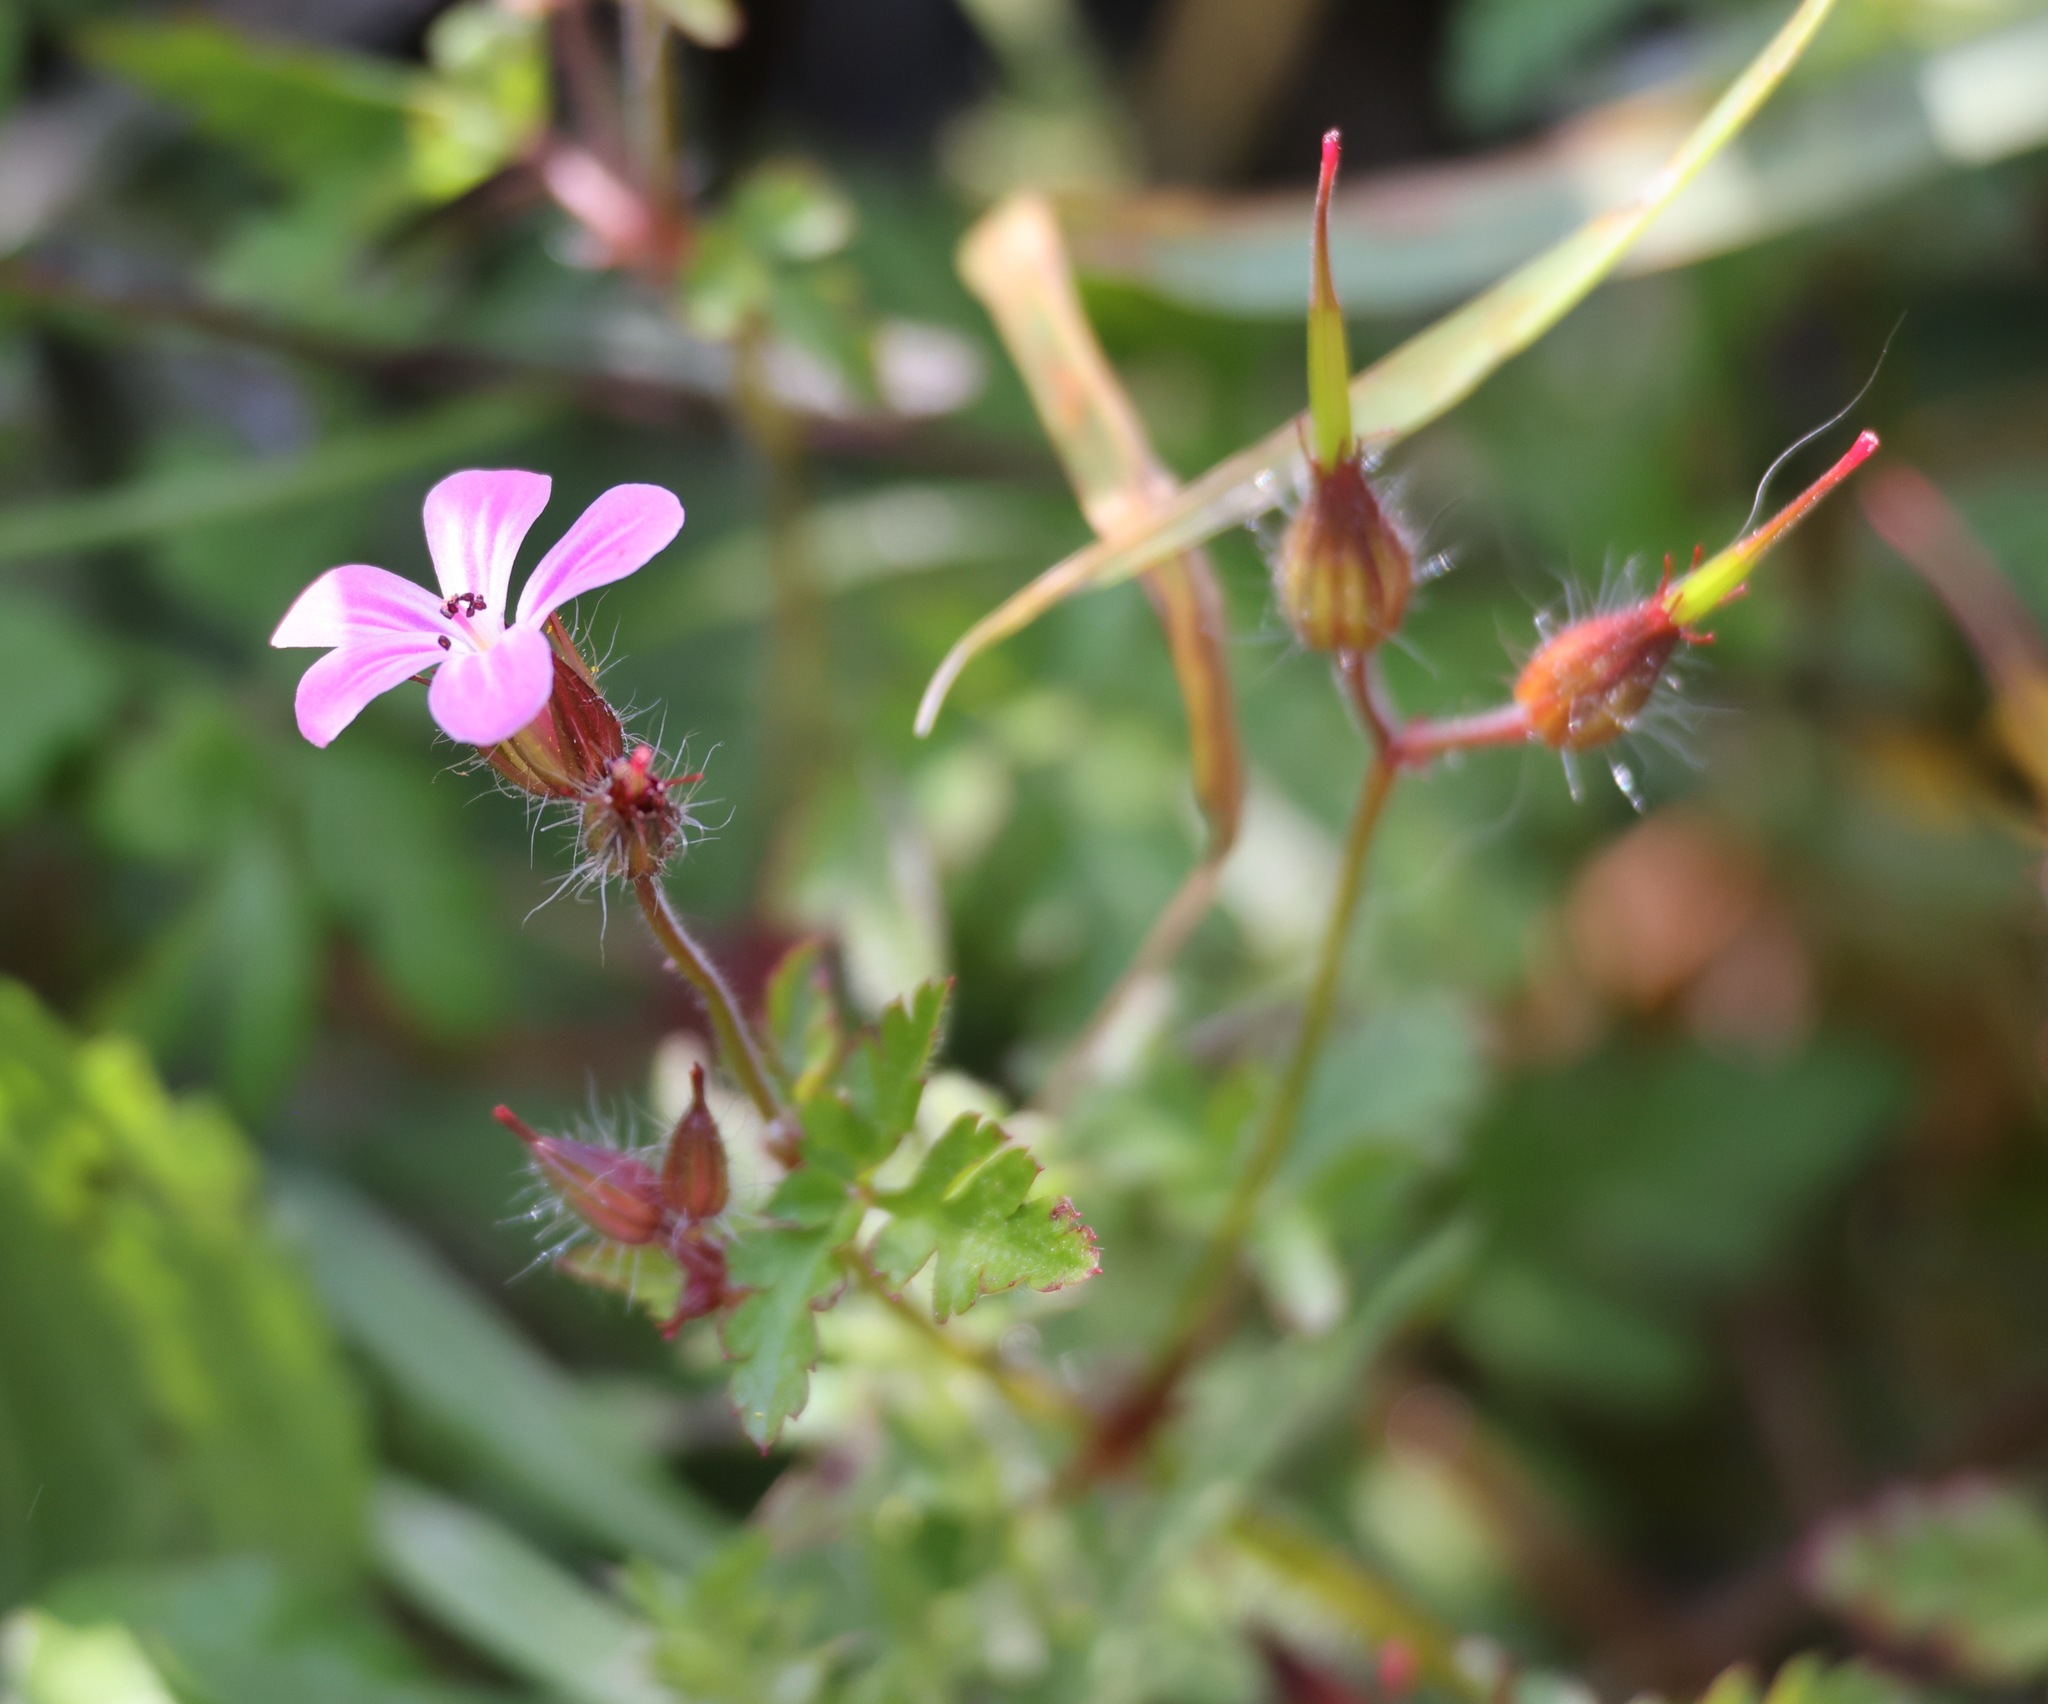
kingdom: Plantae
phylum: Tracheophyta
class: Magnoliopsida
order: Geraniales
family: Geraniaceae
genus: Geranium
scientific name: Geranium robertianum
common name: Herb-robert
